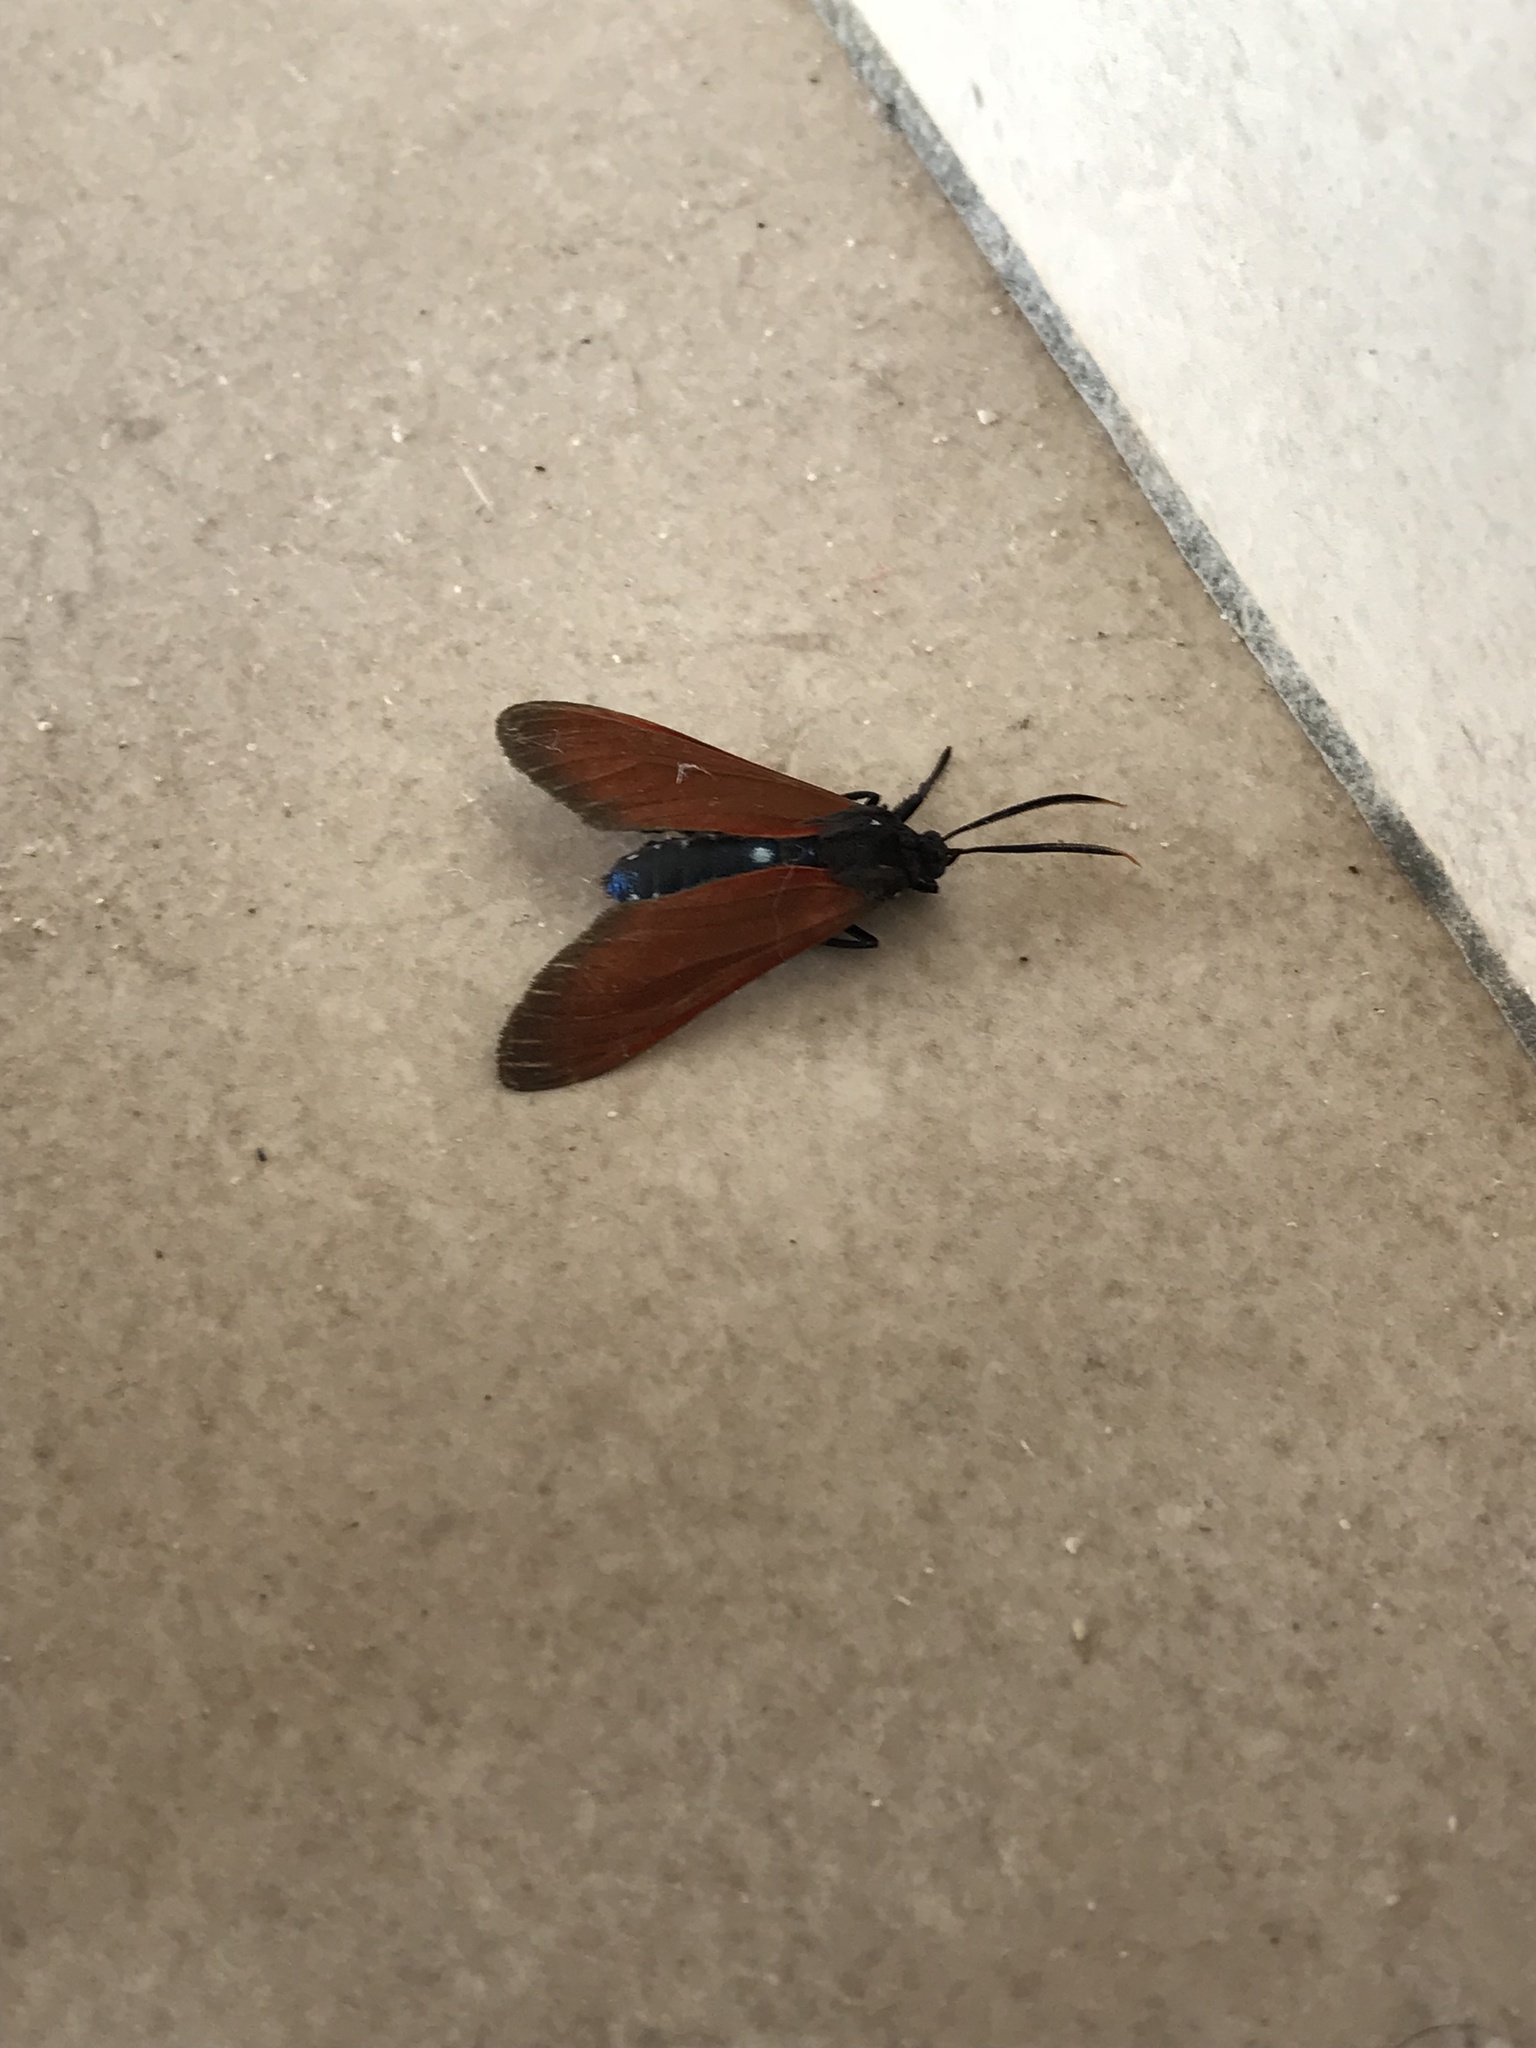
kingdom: Animalia
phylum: Arthropoda
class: Insecta
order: Lepidoptera
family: Erebidae
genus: Empyreuma
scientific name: Empyreuma pugione
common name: Spotted oleander caterpillar moth
